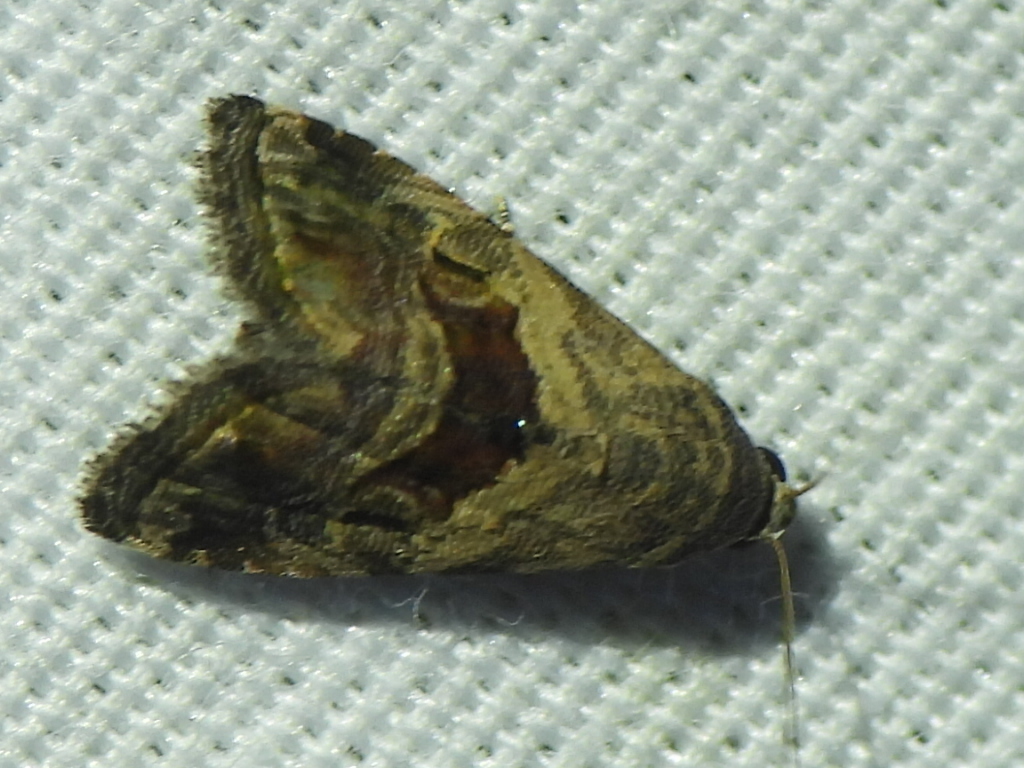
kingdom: Animalia
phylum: Arthropoda
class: Insecta
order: Lepidoptera
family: Noctuidae
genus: Tripudia
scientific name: Tripudia quadrifera
